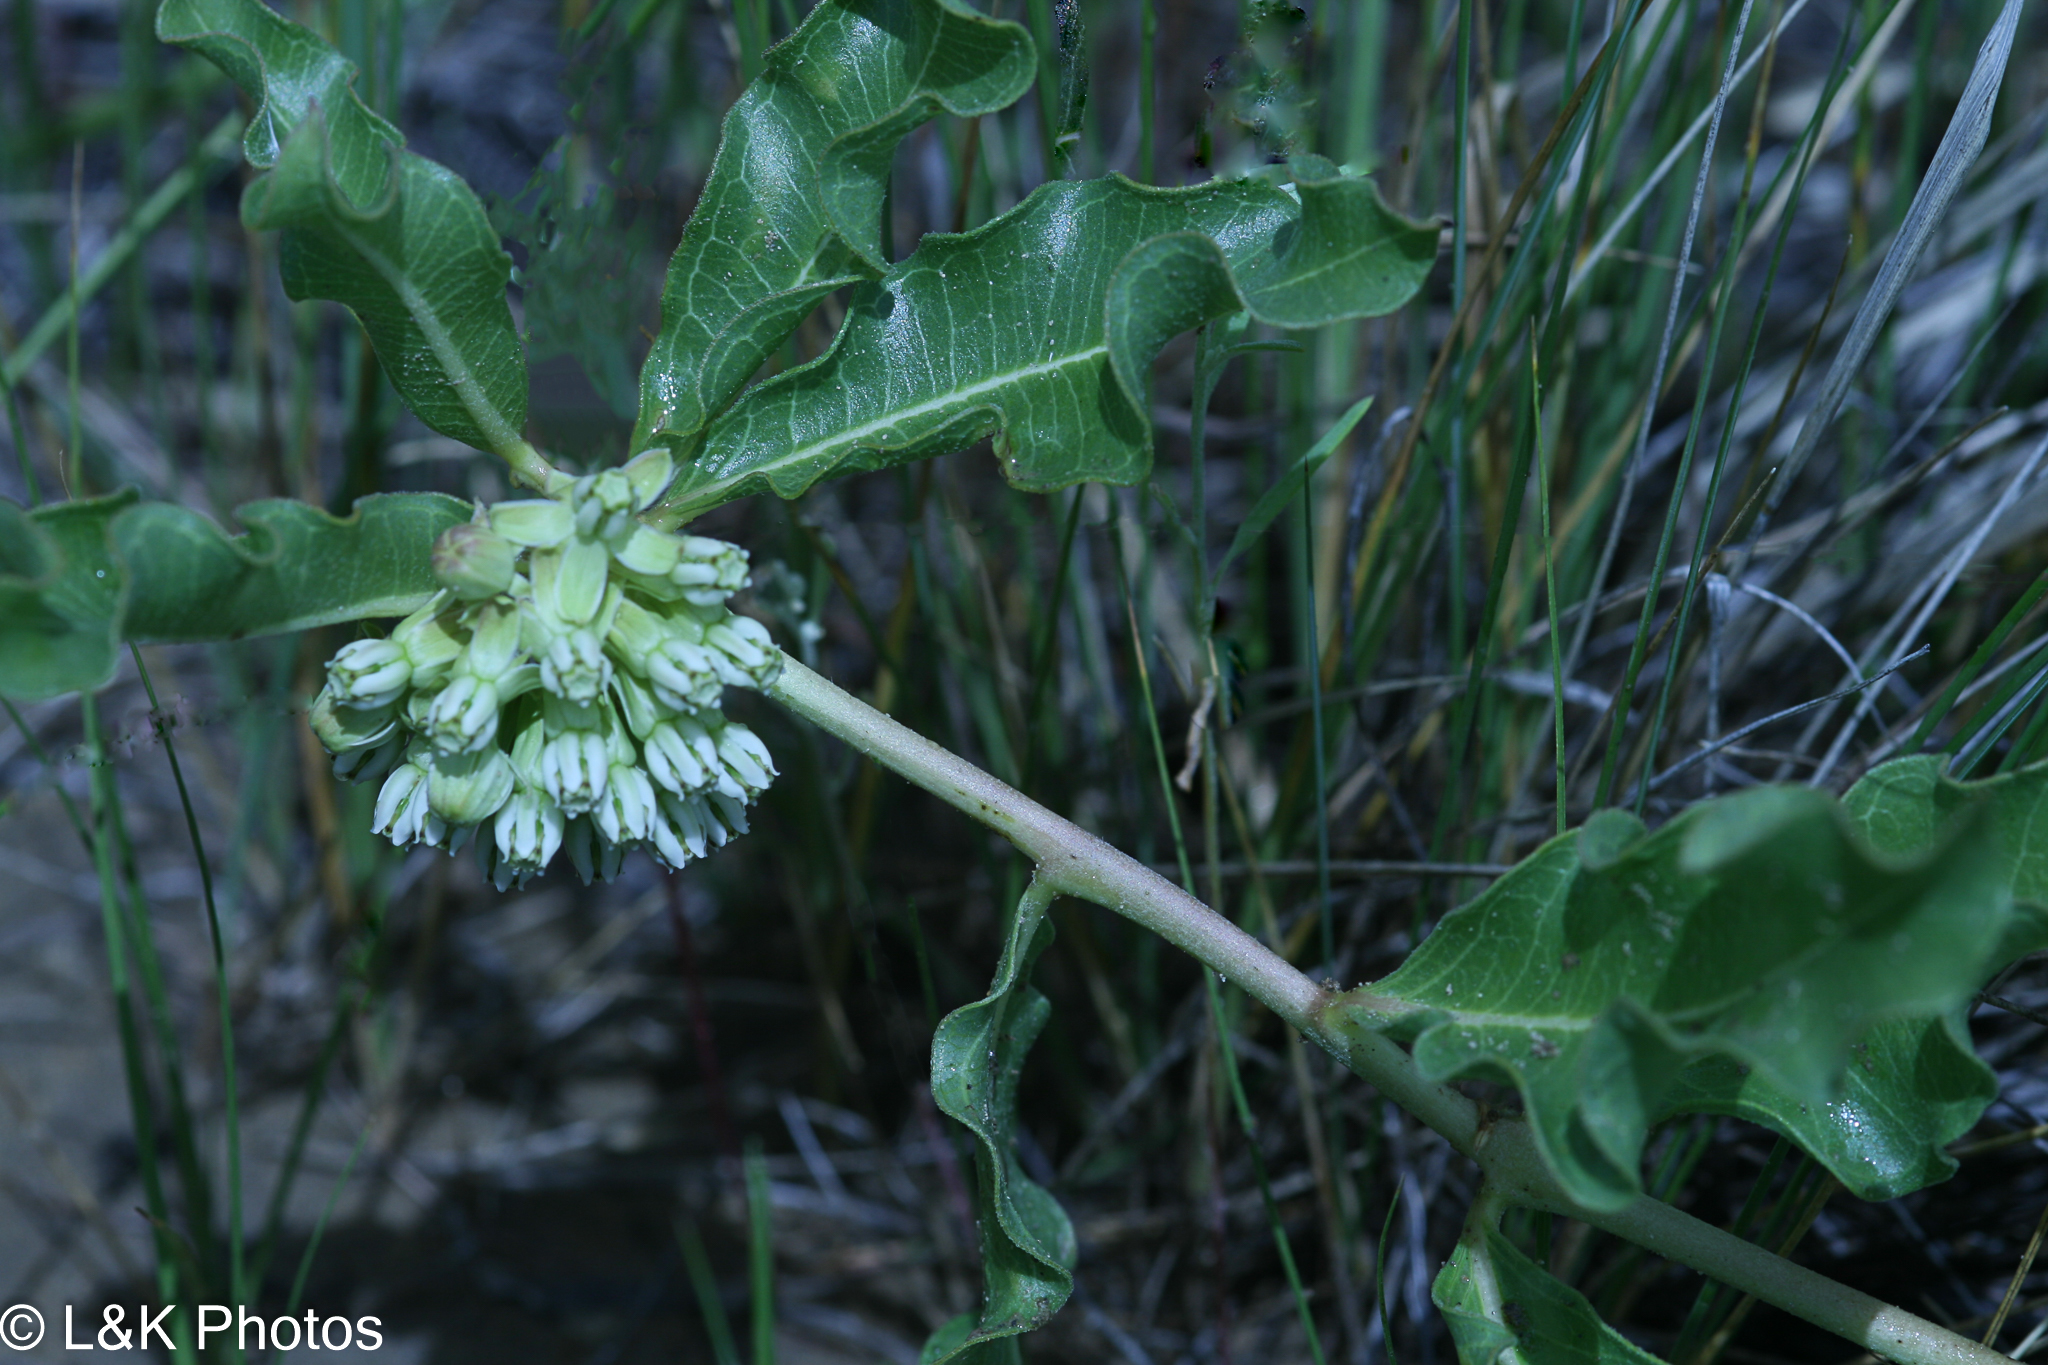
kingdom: Plantae
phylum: Tracheophyta
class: Magnoliopsida
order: Gentianales
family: Apocynaceae
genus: Asclepias
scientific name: Asclepias viridiflora
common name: Green comet milkweed
